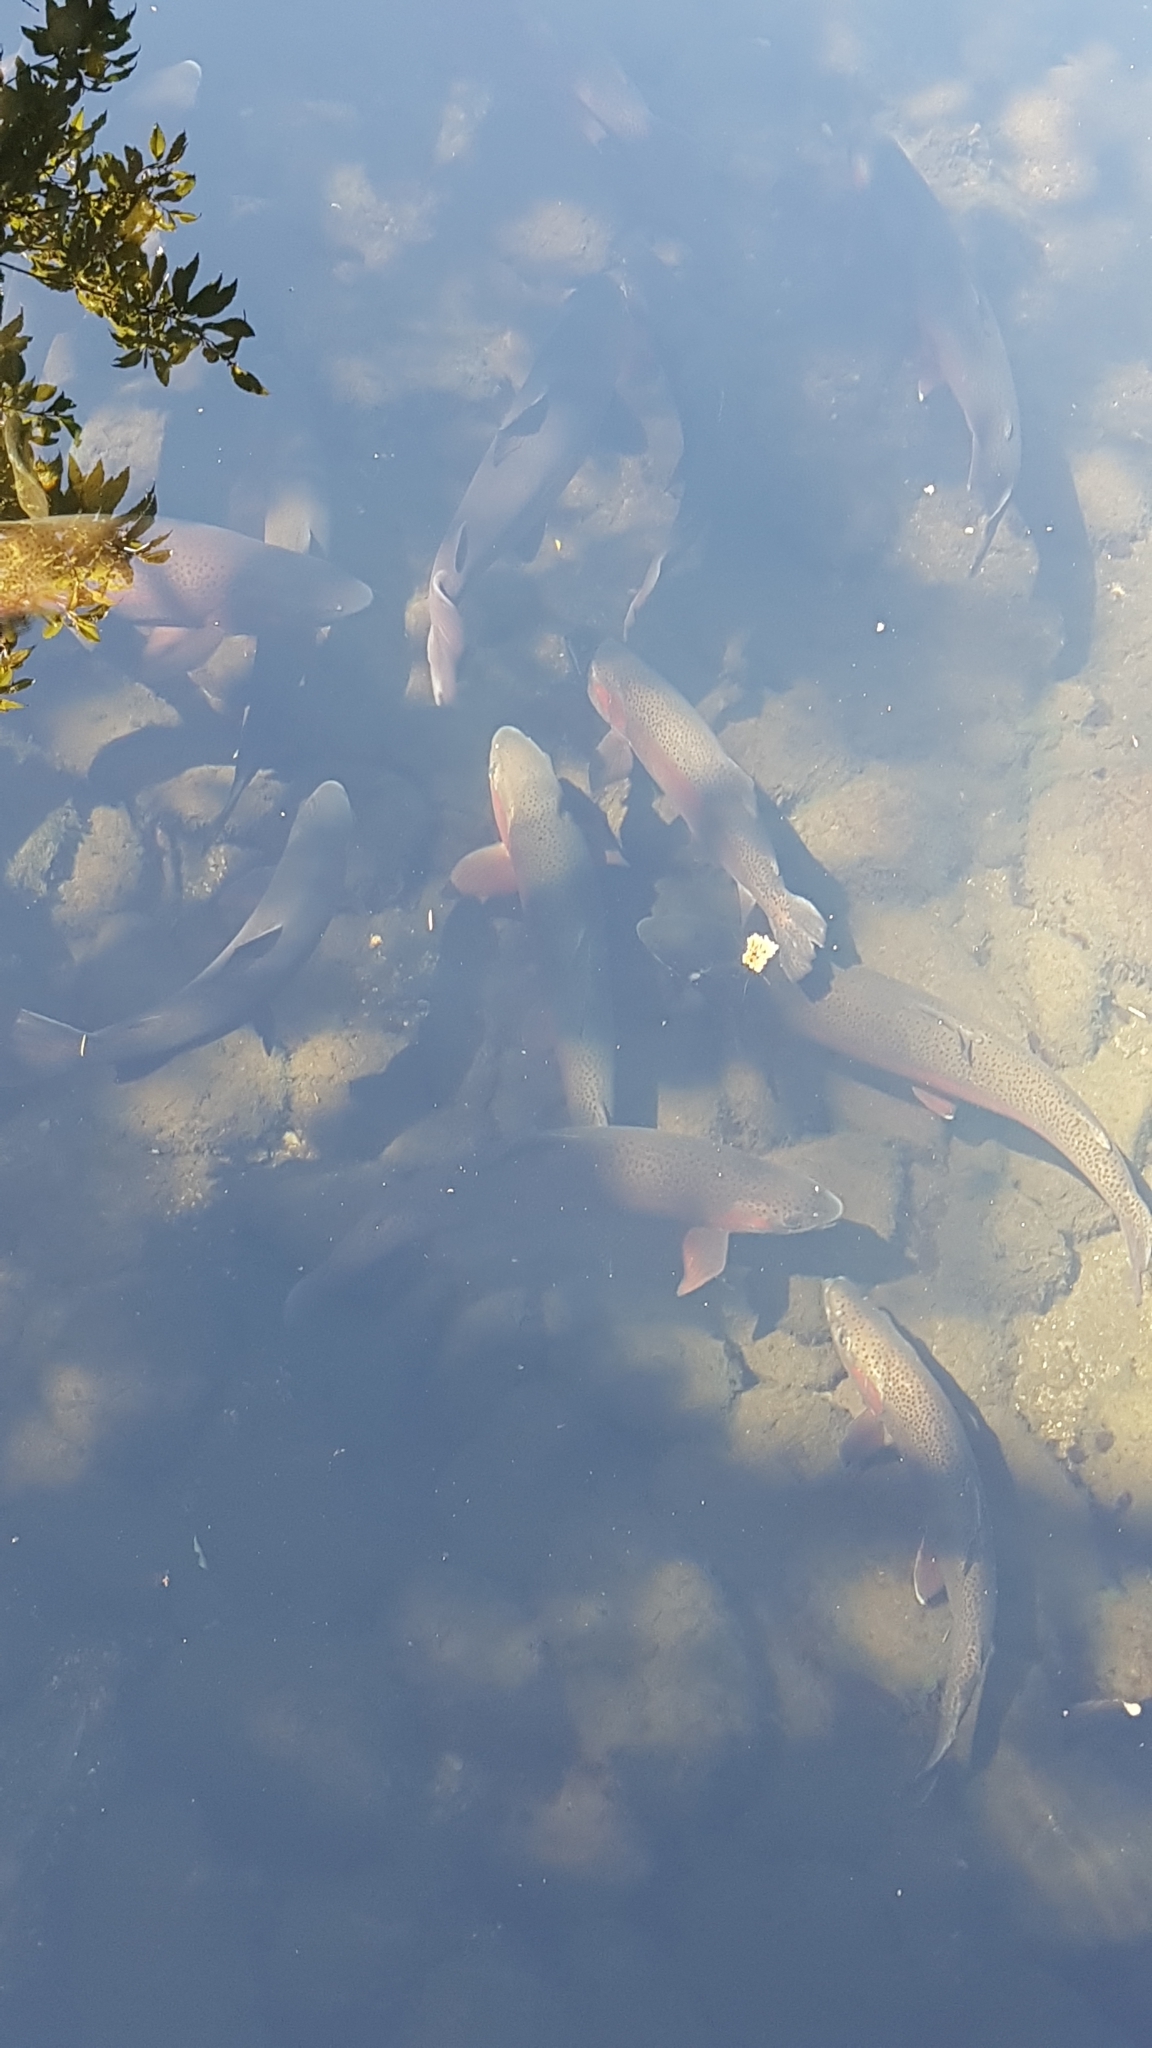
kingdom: Animalia
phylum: Chordata
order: Salmoniformes
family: Salmonidae
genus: Oncorhynchus
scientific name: Oncorhynchus mykiss
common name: Rainbow trout
